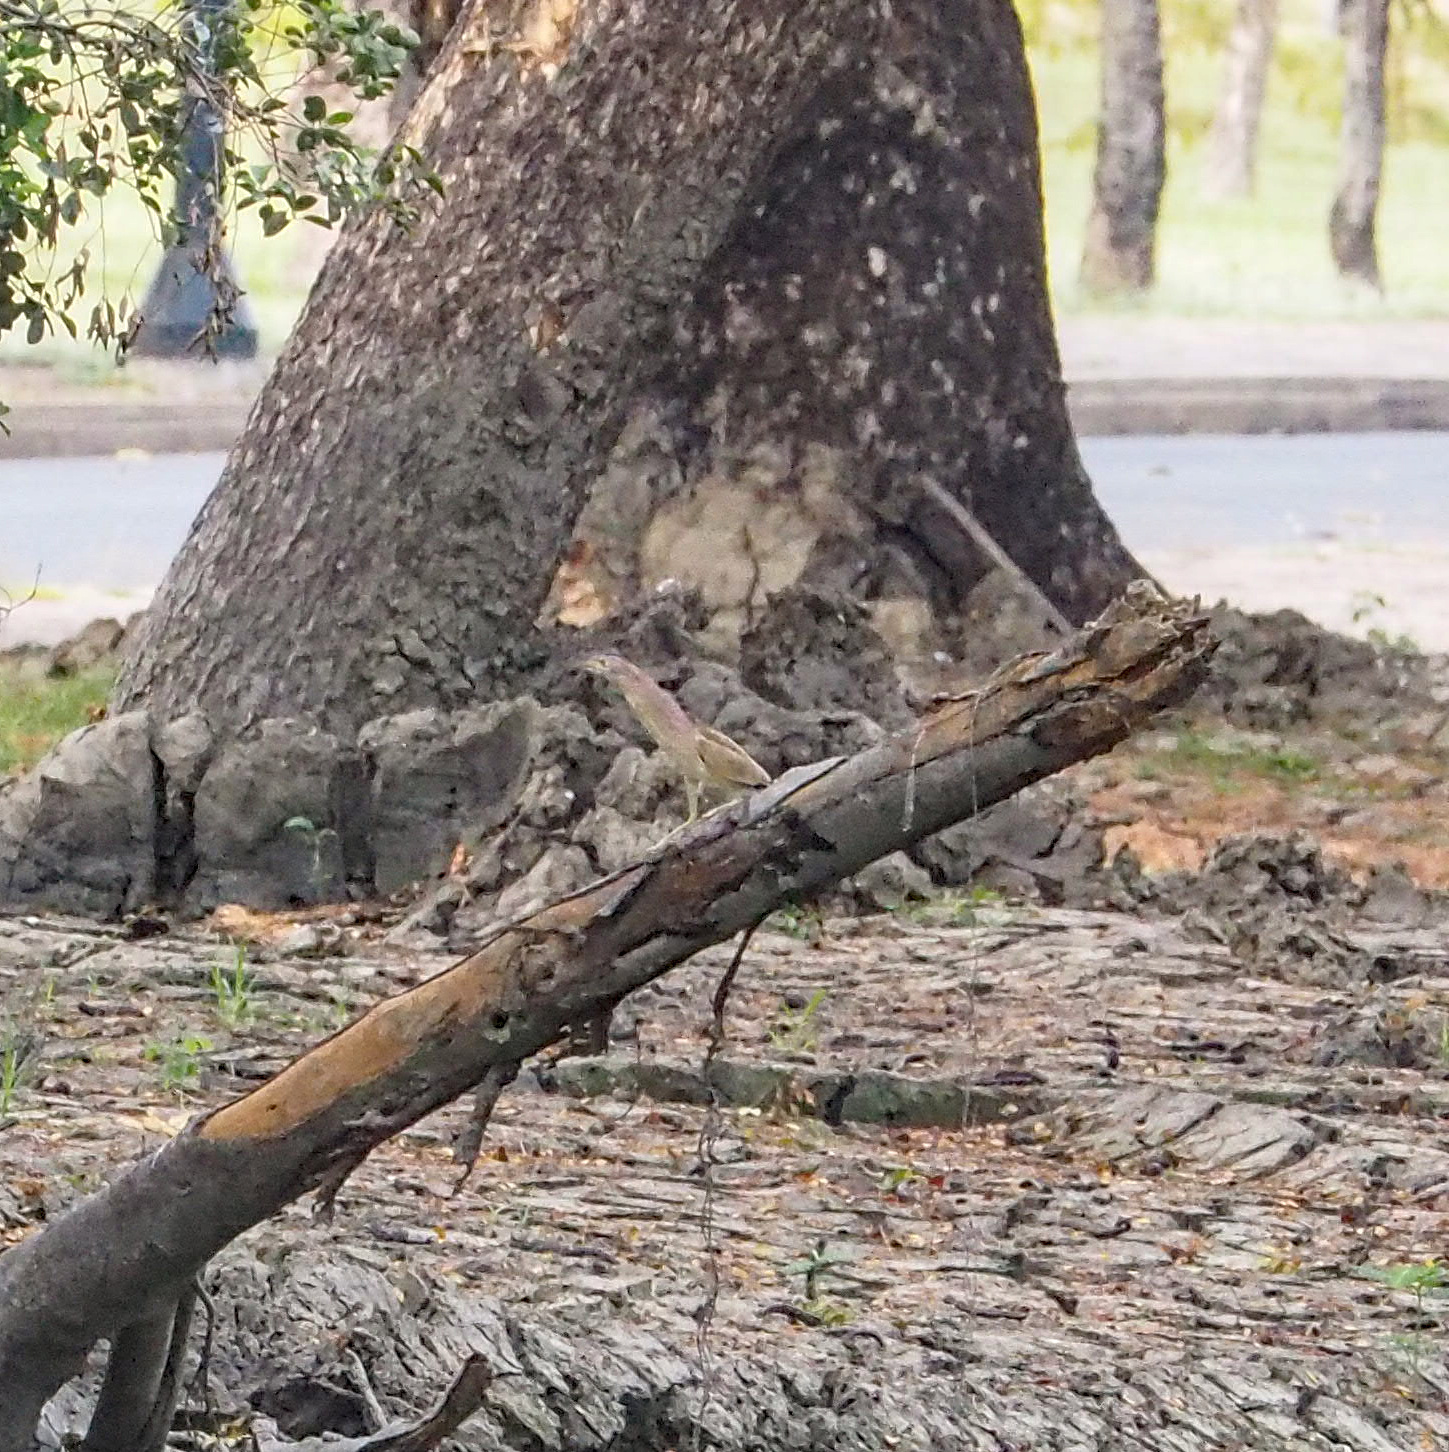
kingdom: Animalia
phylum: Chordata
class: Aves
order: Pelecaniformes
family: Ardeidae
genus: Ixobrychus
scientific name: Ixobrychus sinensis
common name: Yellow bittern
